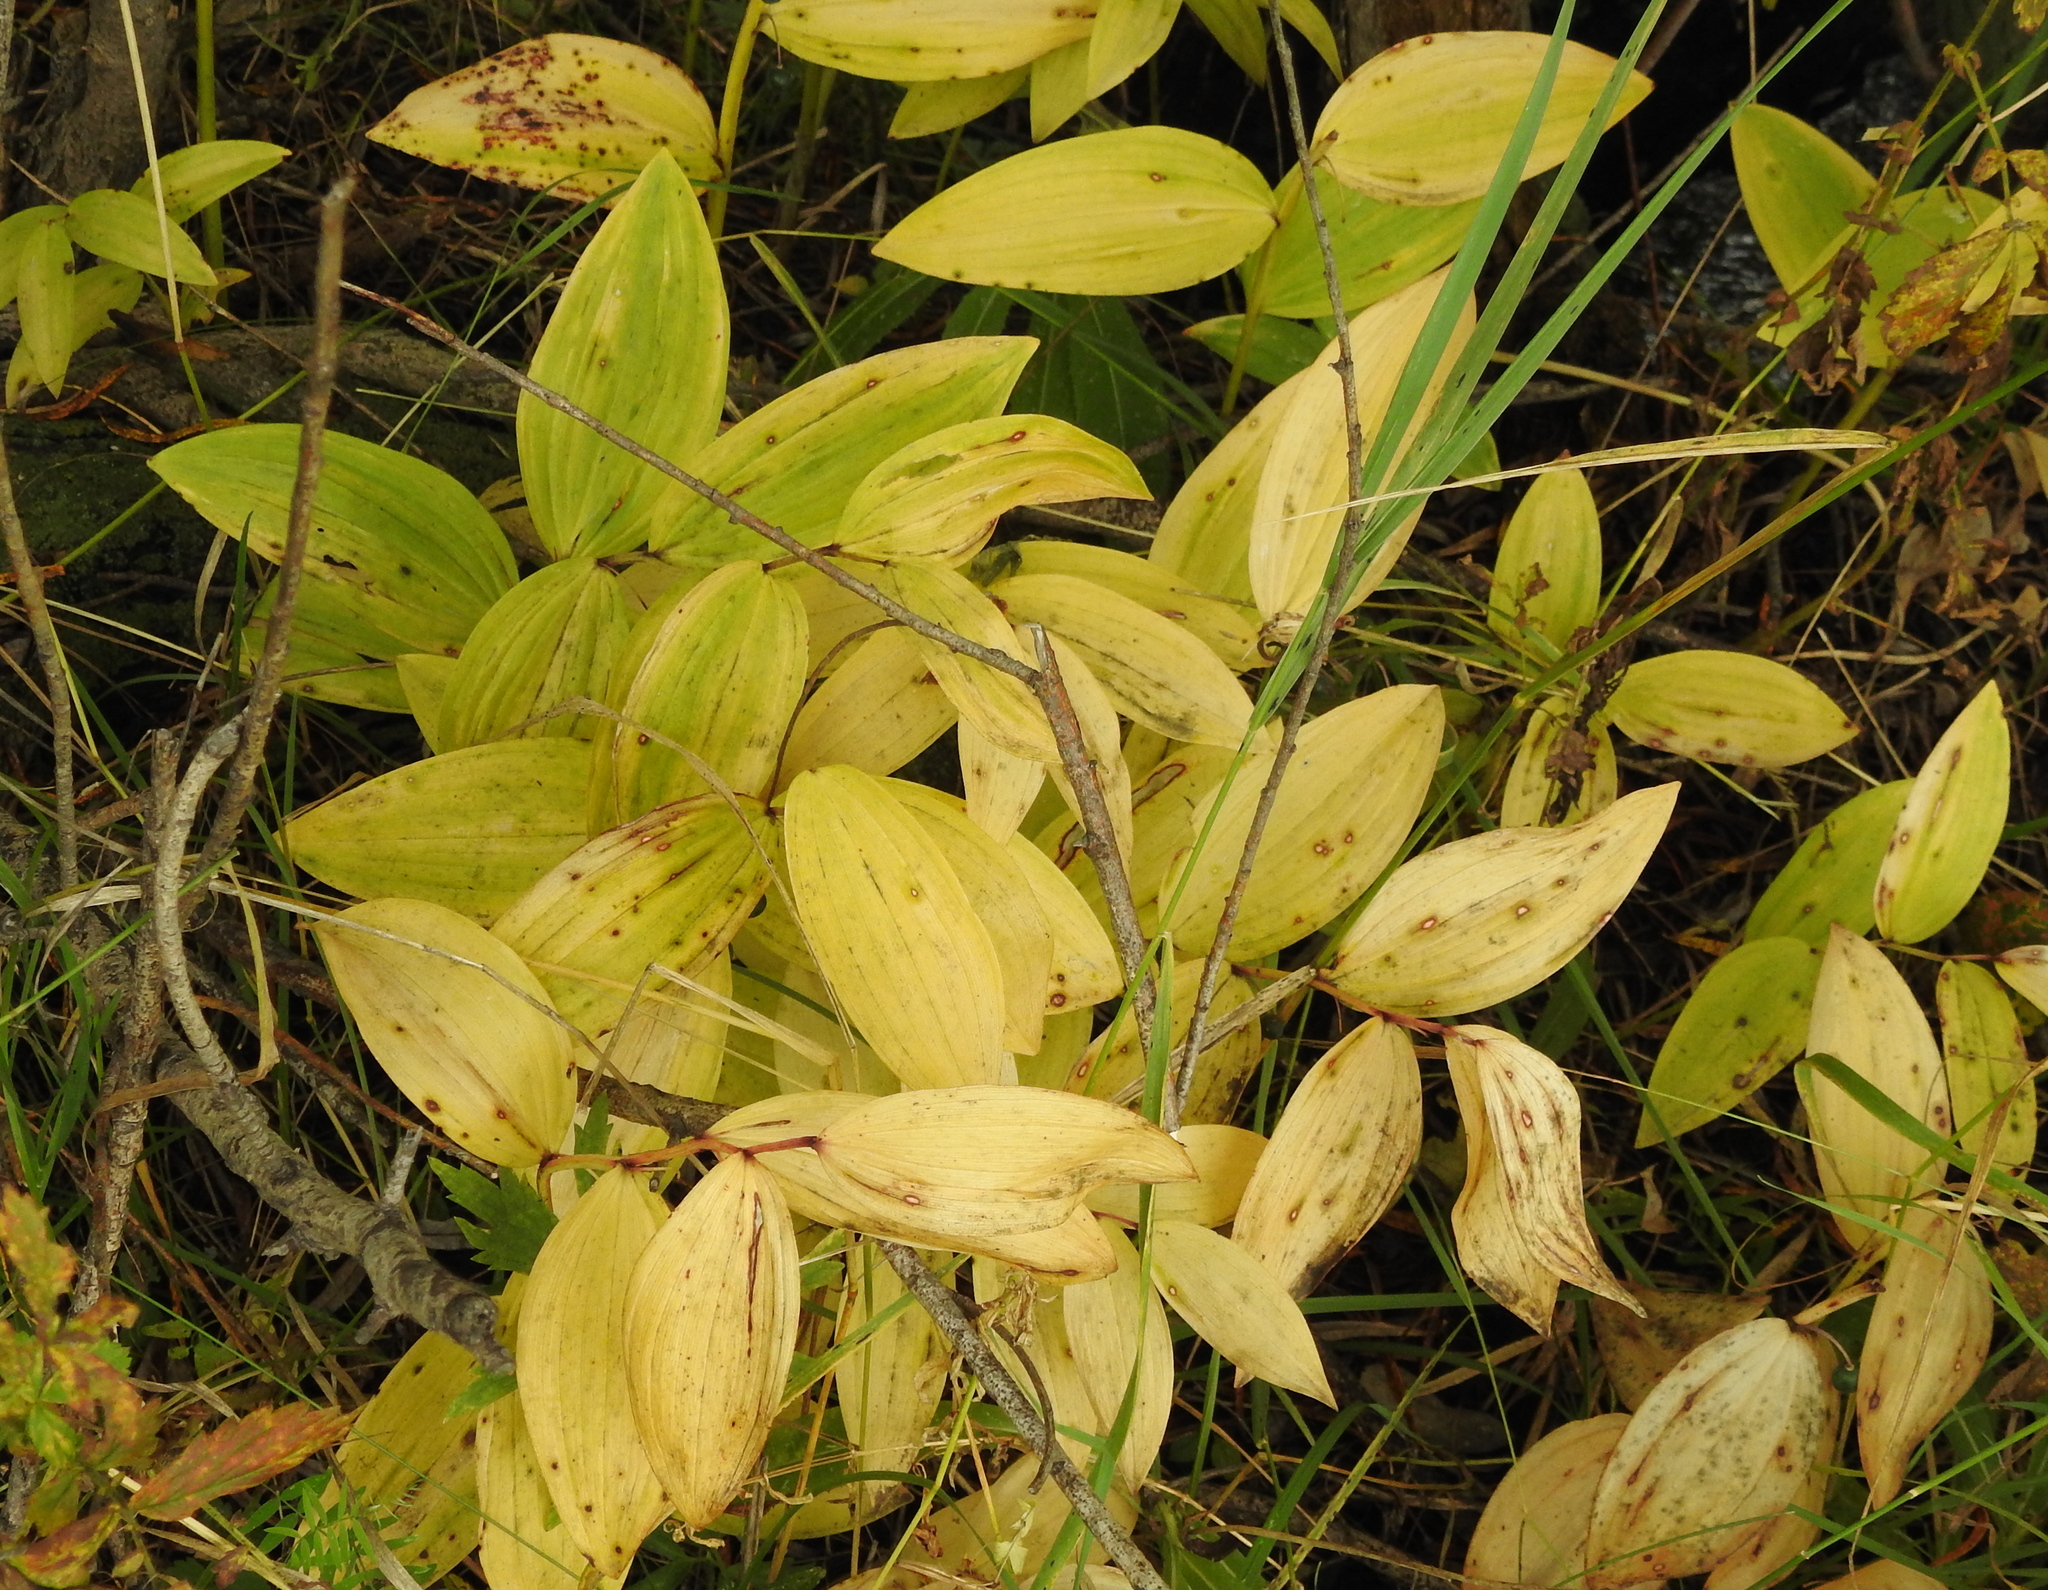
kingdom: Plantae
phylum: Tracheophyta
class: Liliopsida
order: Asparagales
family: Asparagaceae
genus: Polygonatum
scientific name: Polygonatum odoratum
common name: Angular solomon's-seal
